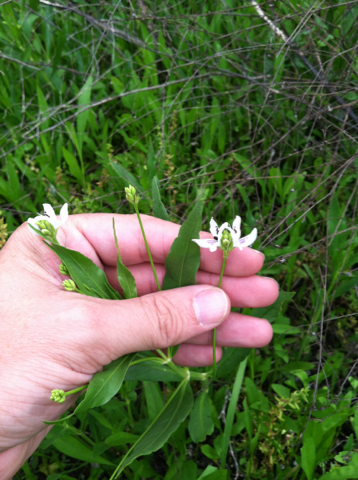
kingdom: Plantae
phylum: Tracheophyta
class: Magnoliopsida
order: Lamiales
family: Acanthaceae
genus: Dianthera
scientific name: Dianthera americana
